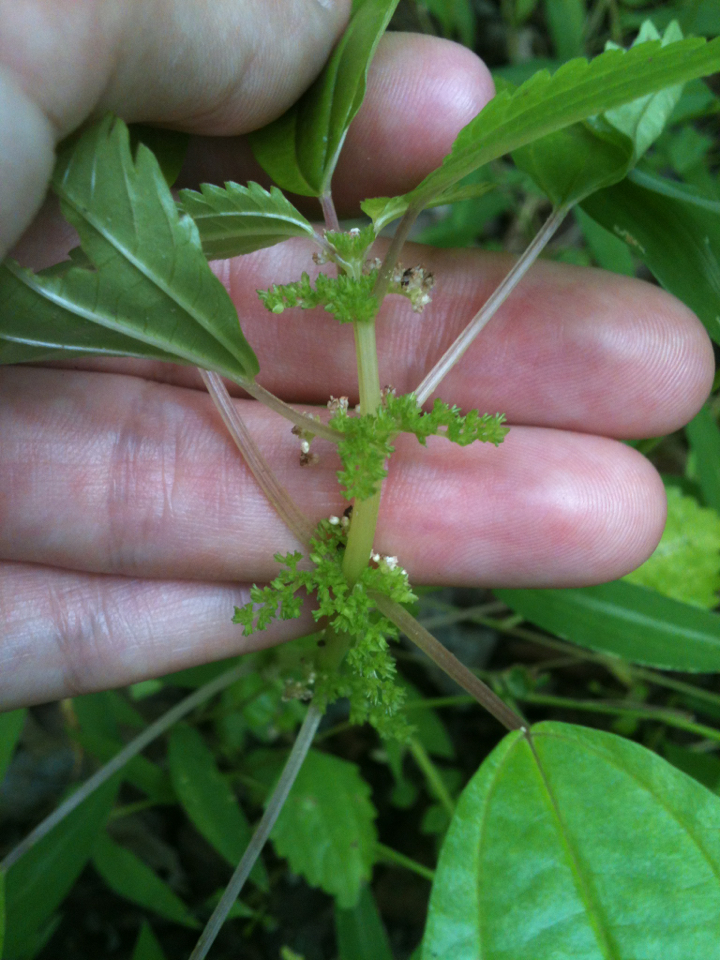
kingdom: Plantae
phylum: Tracheophyta
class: Magnoliopsida
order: Rosales
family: Urticaceae
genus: Pilea
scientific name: Pilea pumila
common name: Clearweed
